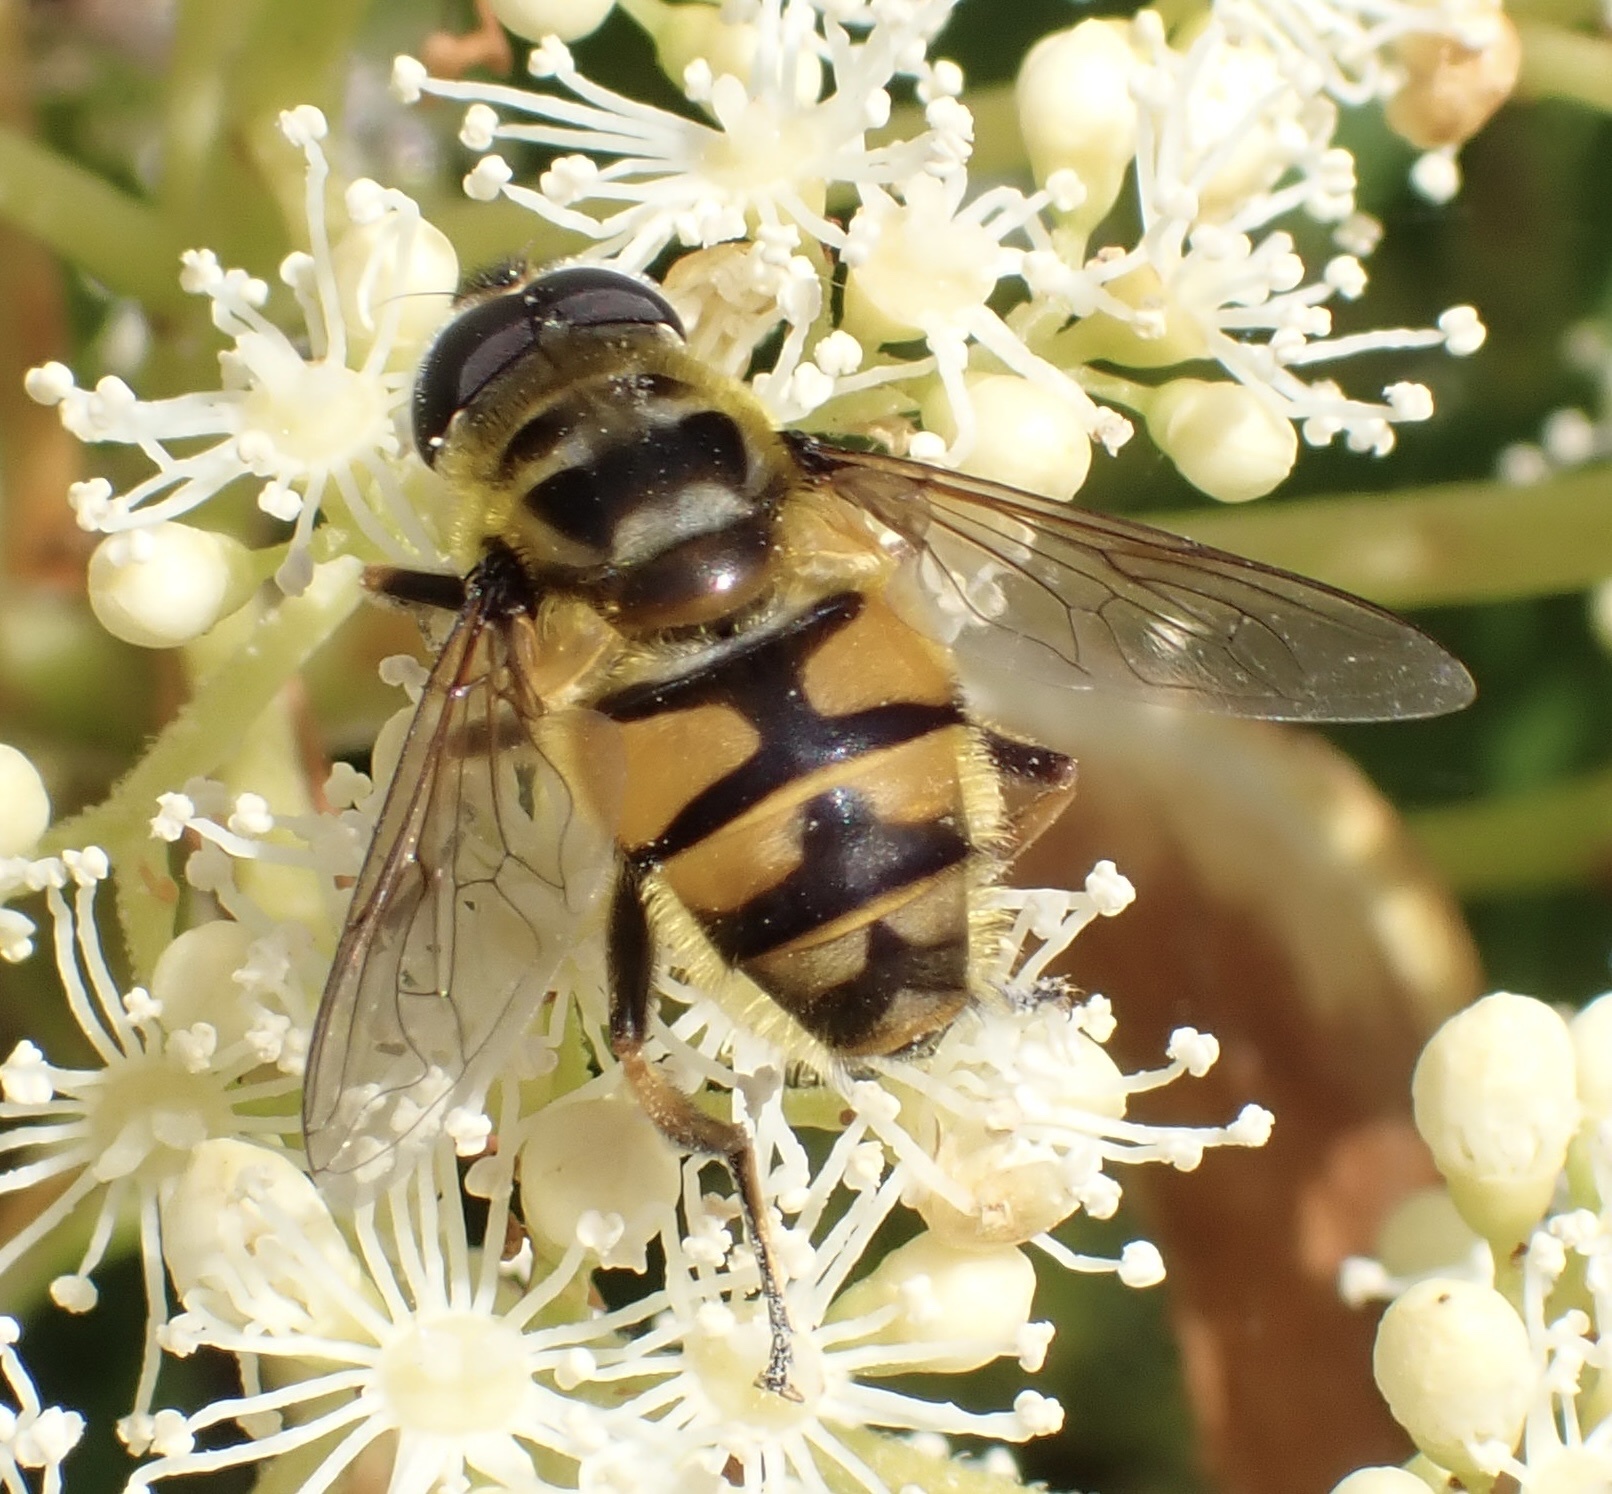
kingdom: Animalia
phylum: Arthropoda
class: Insecta
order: Diptera
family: Syrphidae
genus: Myathropa
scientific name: Myathropa florea
